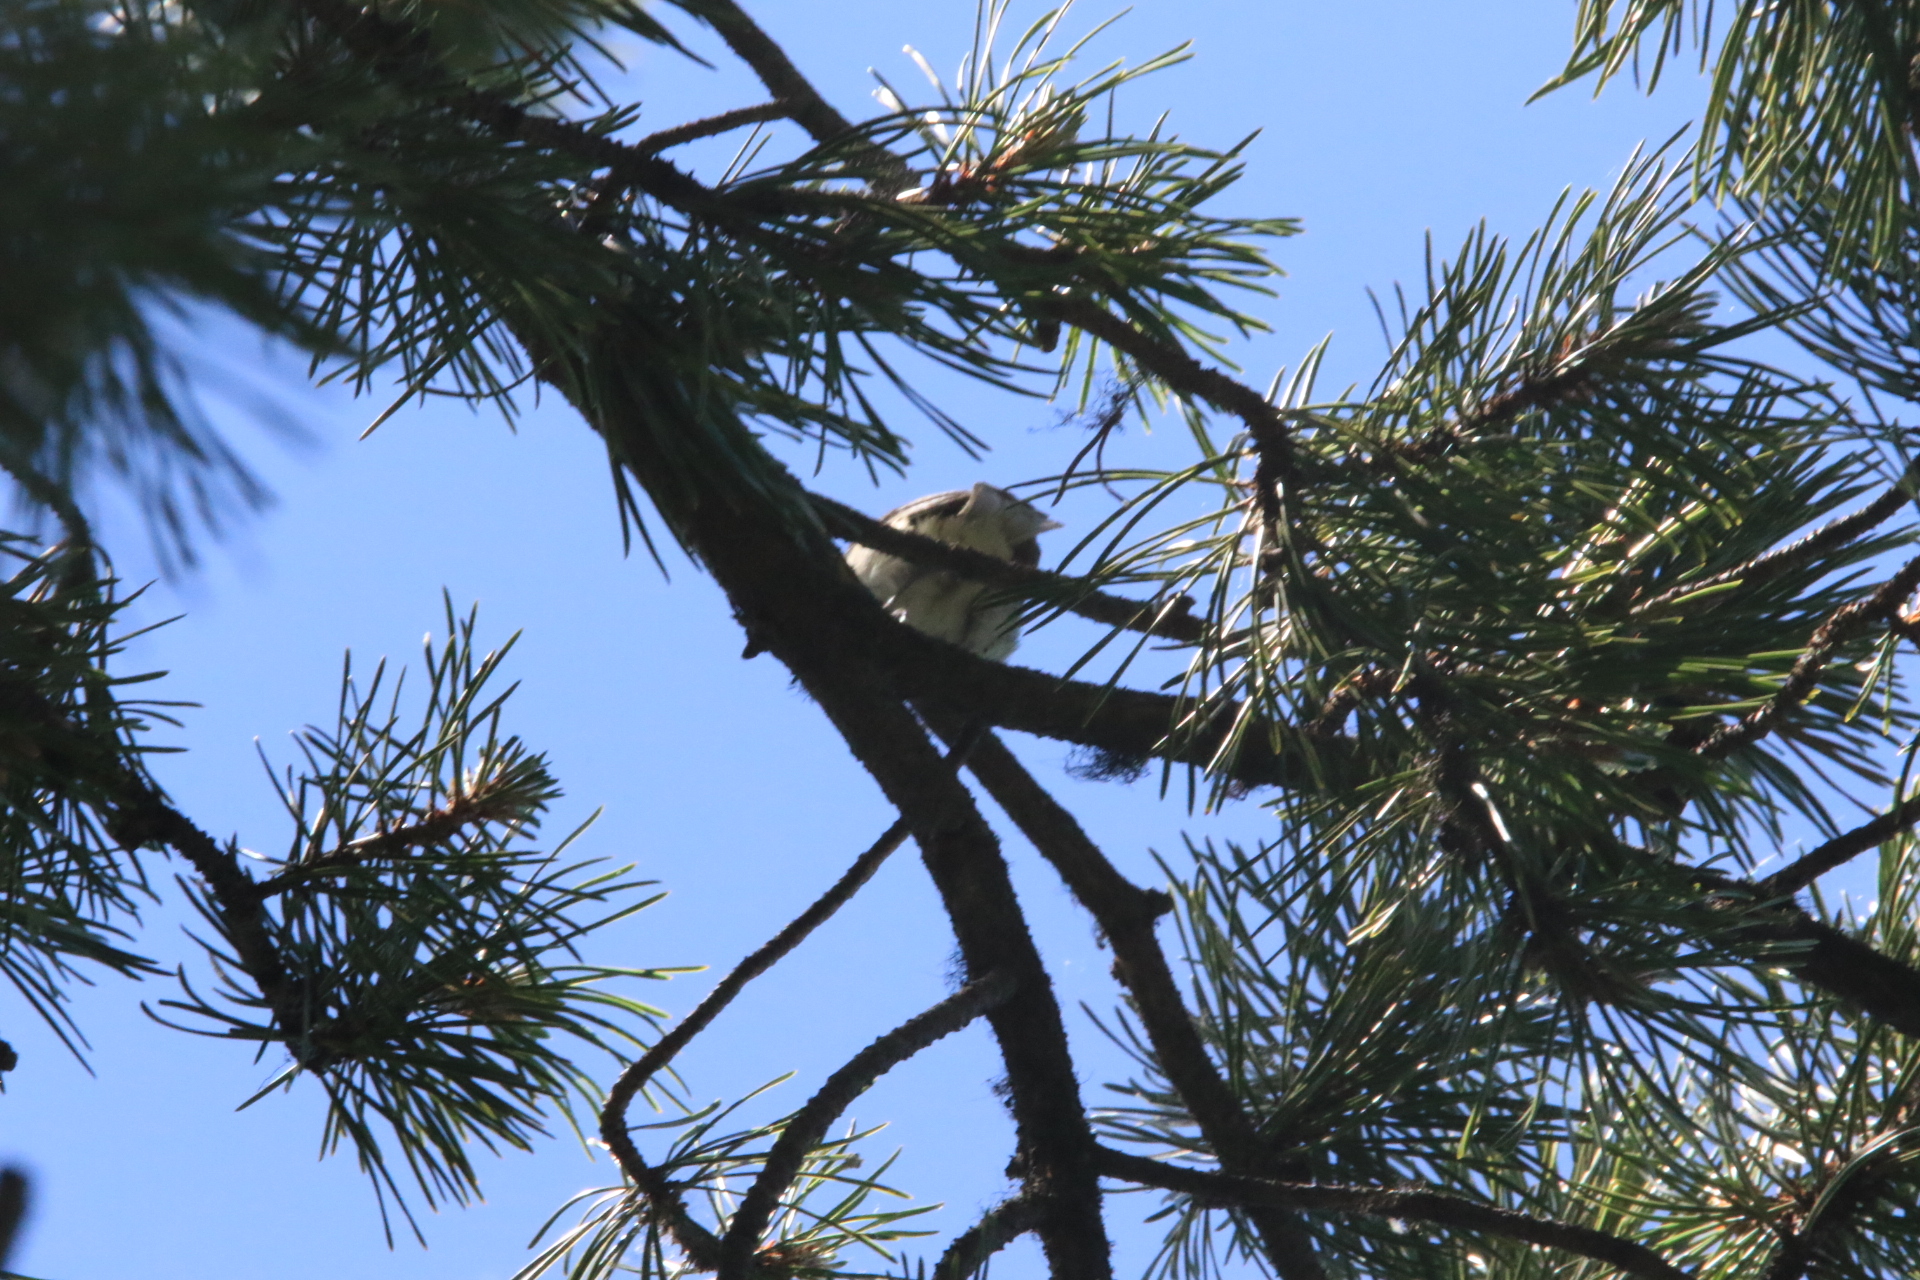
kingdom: Animalia
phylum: Chordata
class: Aves
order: Passeriformes
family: Vireonidae
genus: Vireo
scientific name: Vireo gilvus
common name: Warbling vireo
